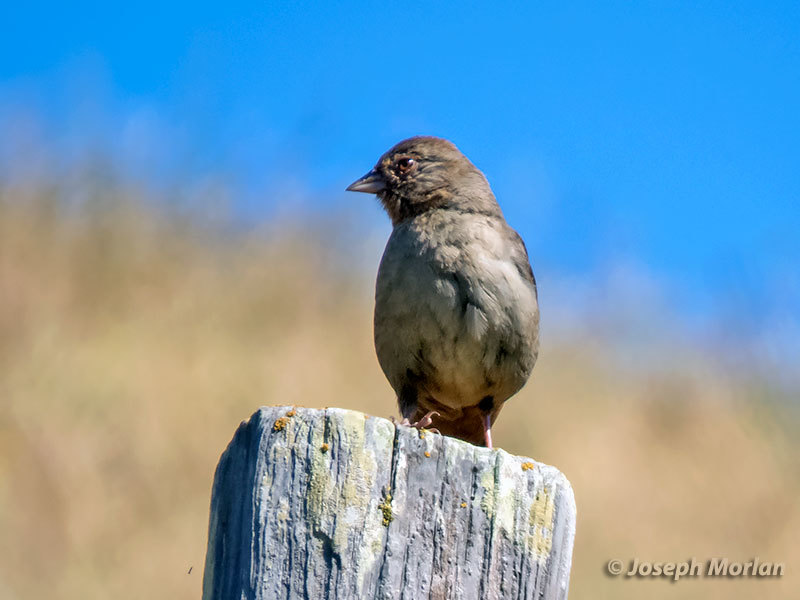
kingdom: Animalia
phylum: Chordata
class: Aves
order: Passeriformes
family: Passerellidae
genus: Melozone
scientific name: Melozone crissalis
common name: California towhee
